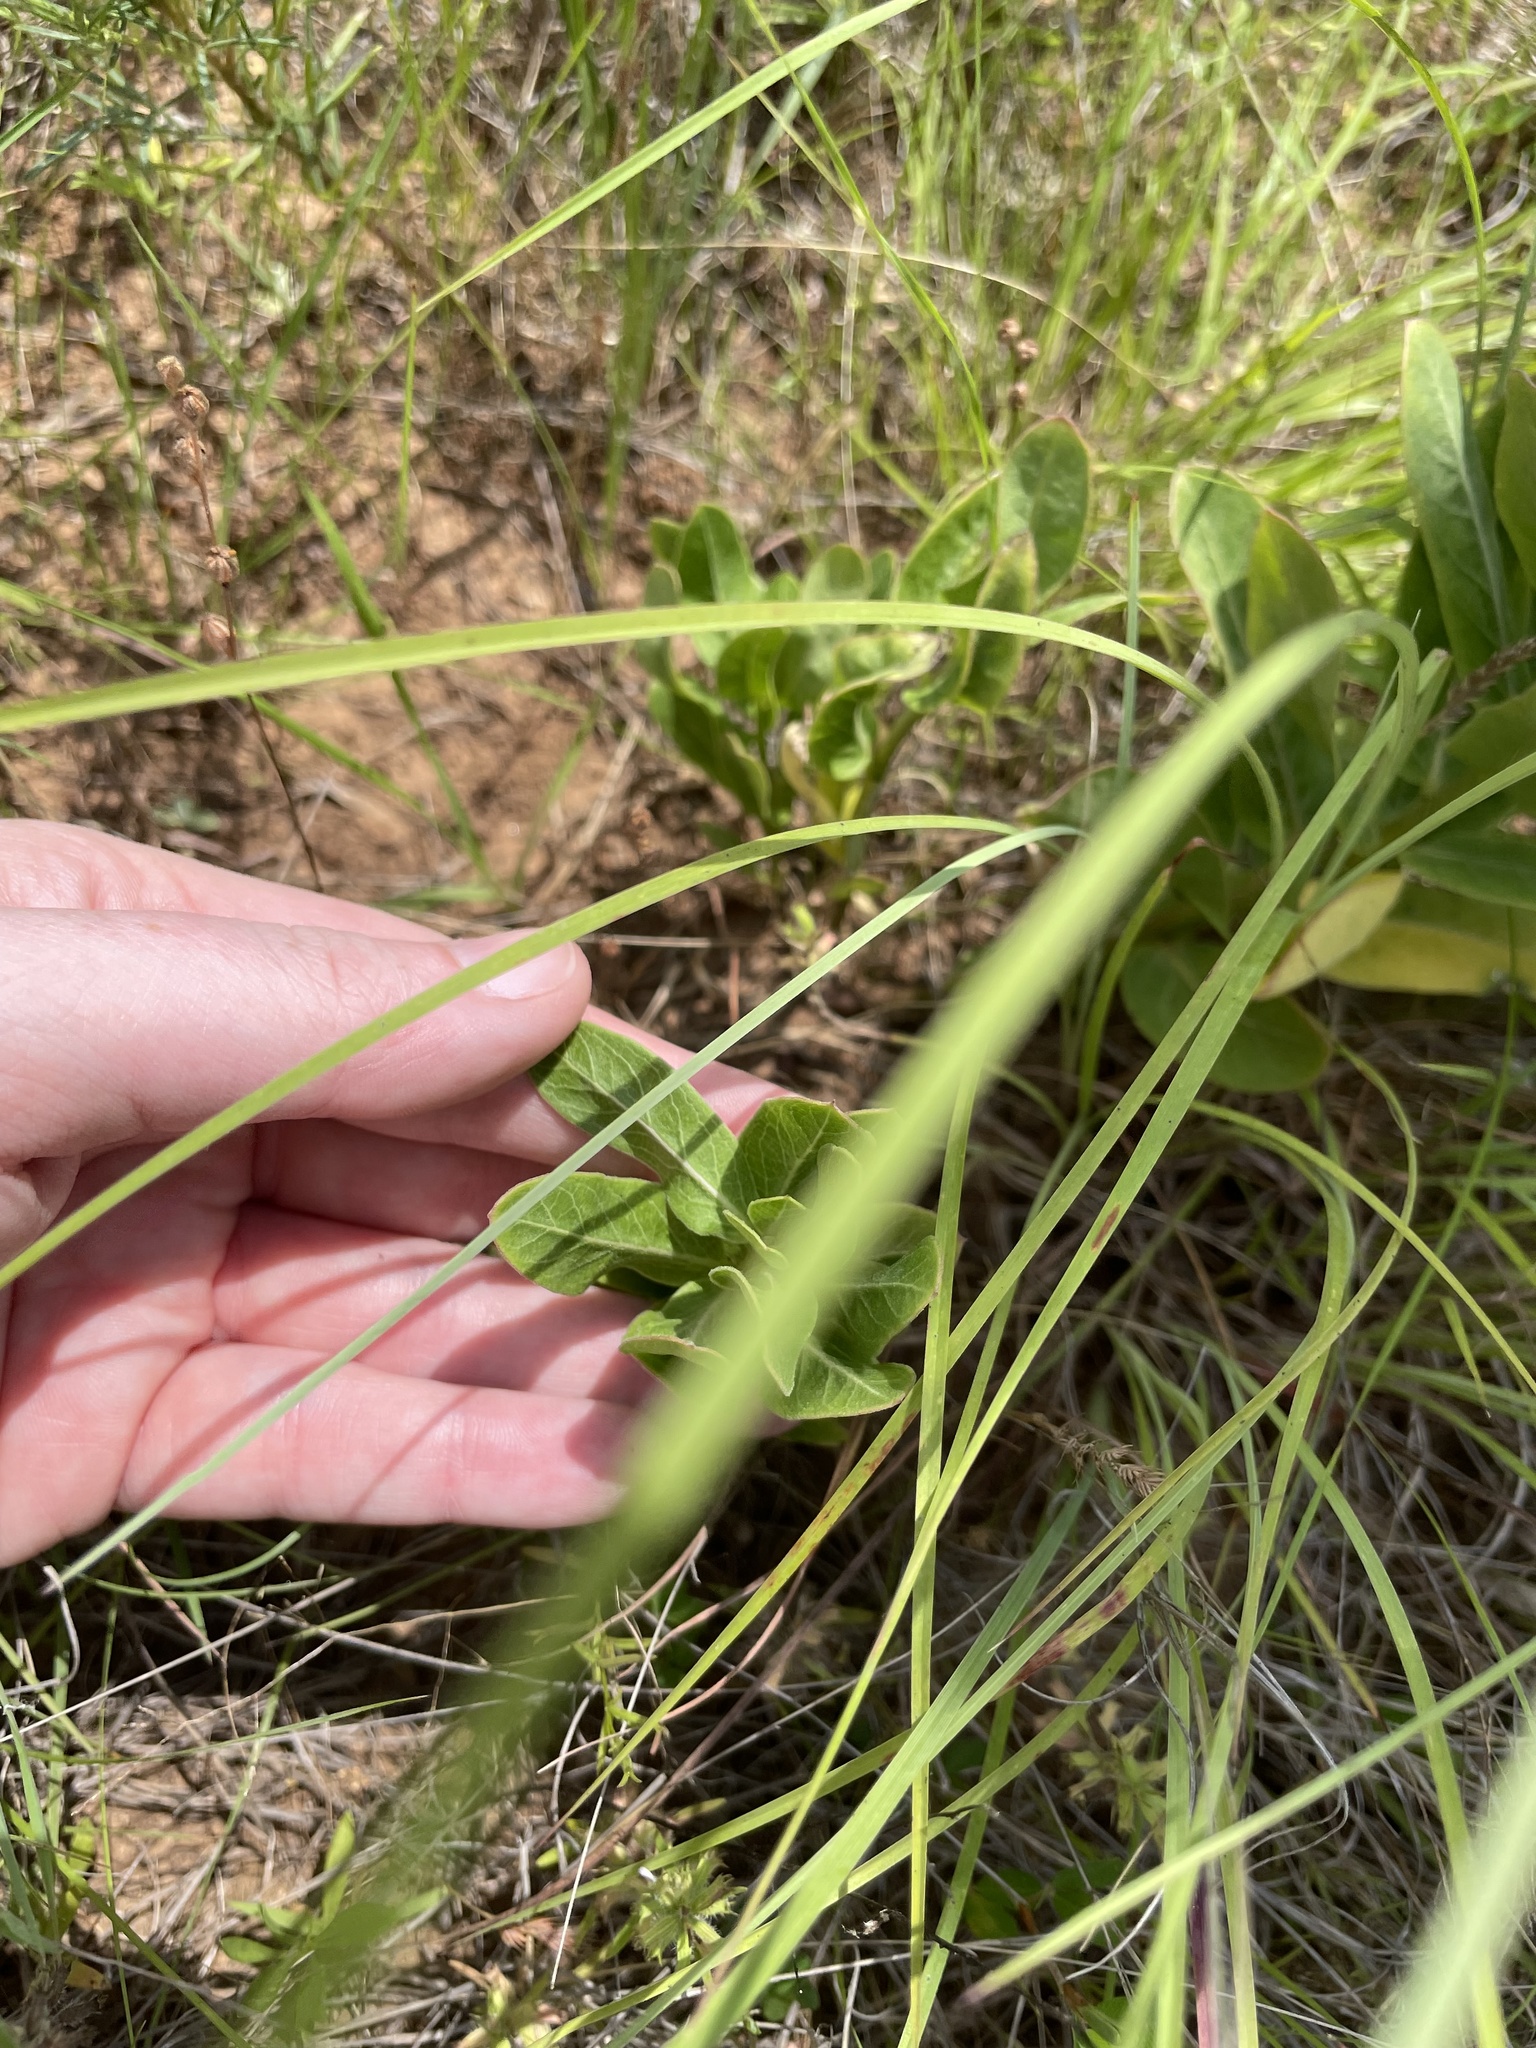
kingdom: Plantae
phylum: Tracheophyta
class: Magnoliopsida
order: Gentianales
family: Apocynaceae
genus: Asclepias
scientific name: Asclepias viridis
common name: Antelope-horns
